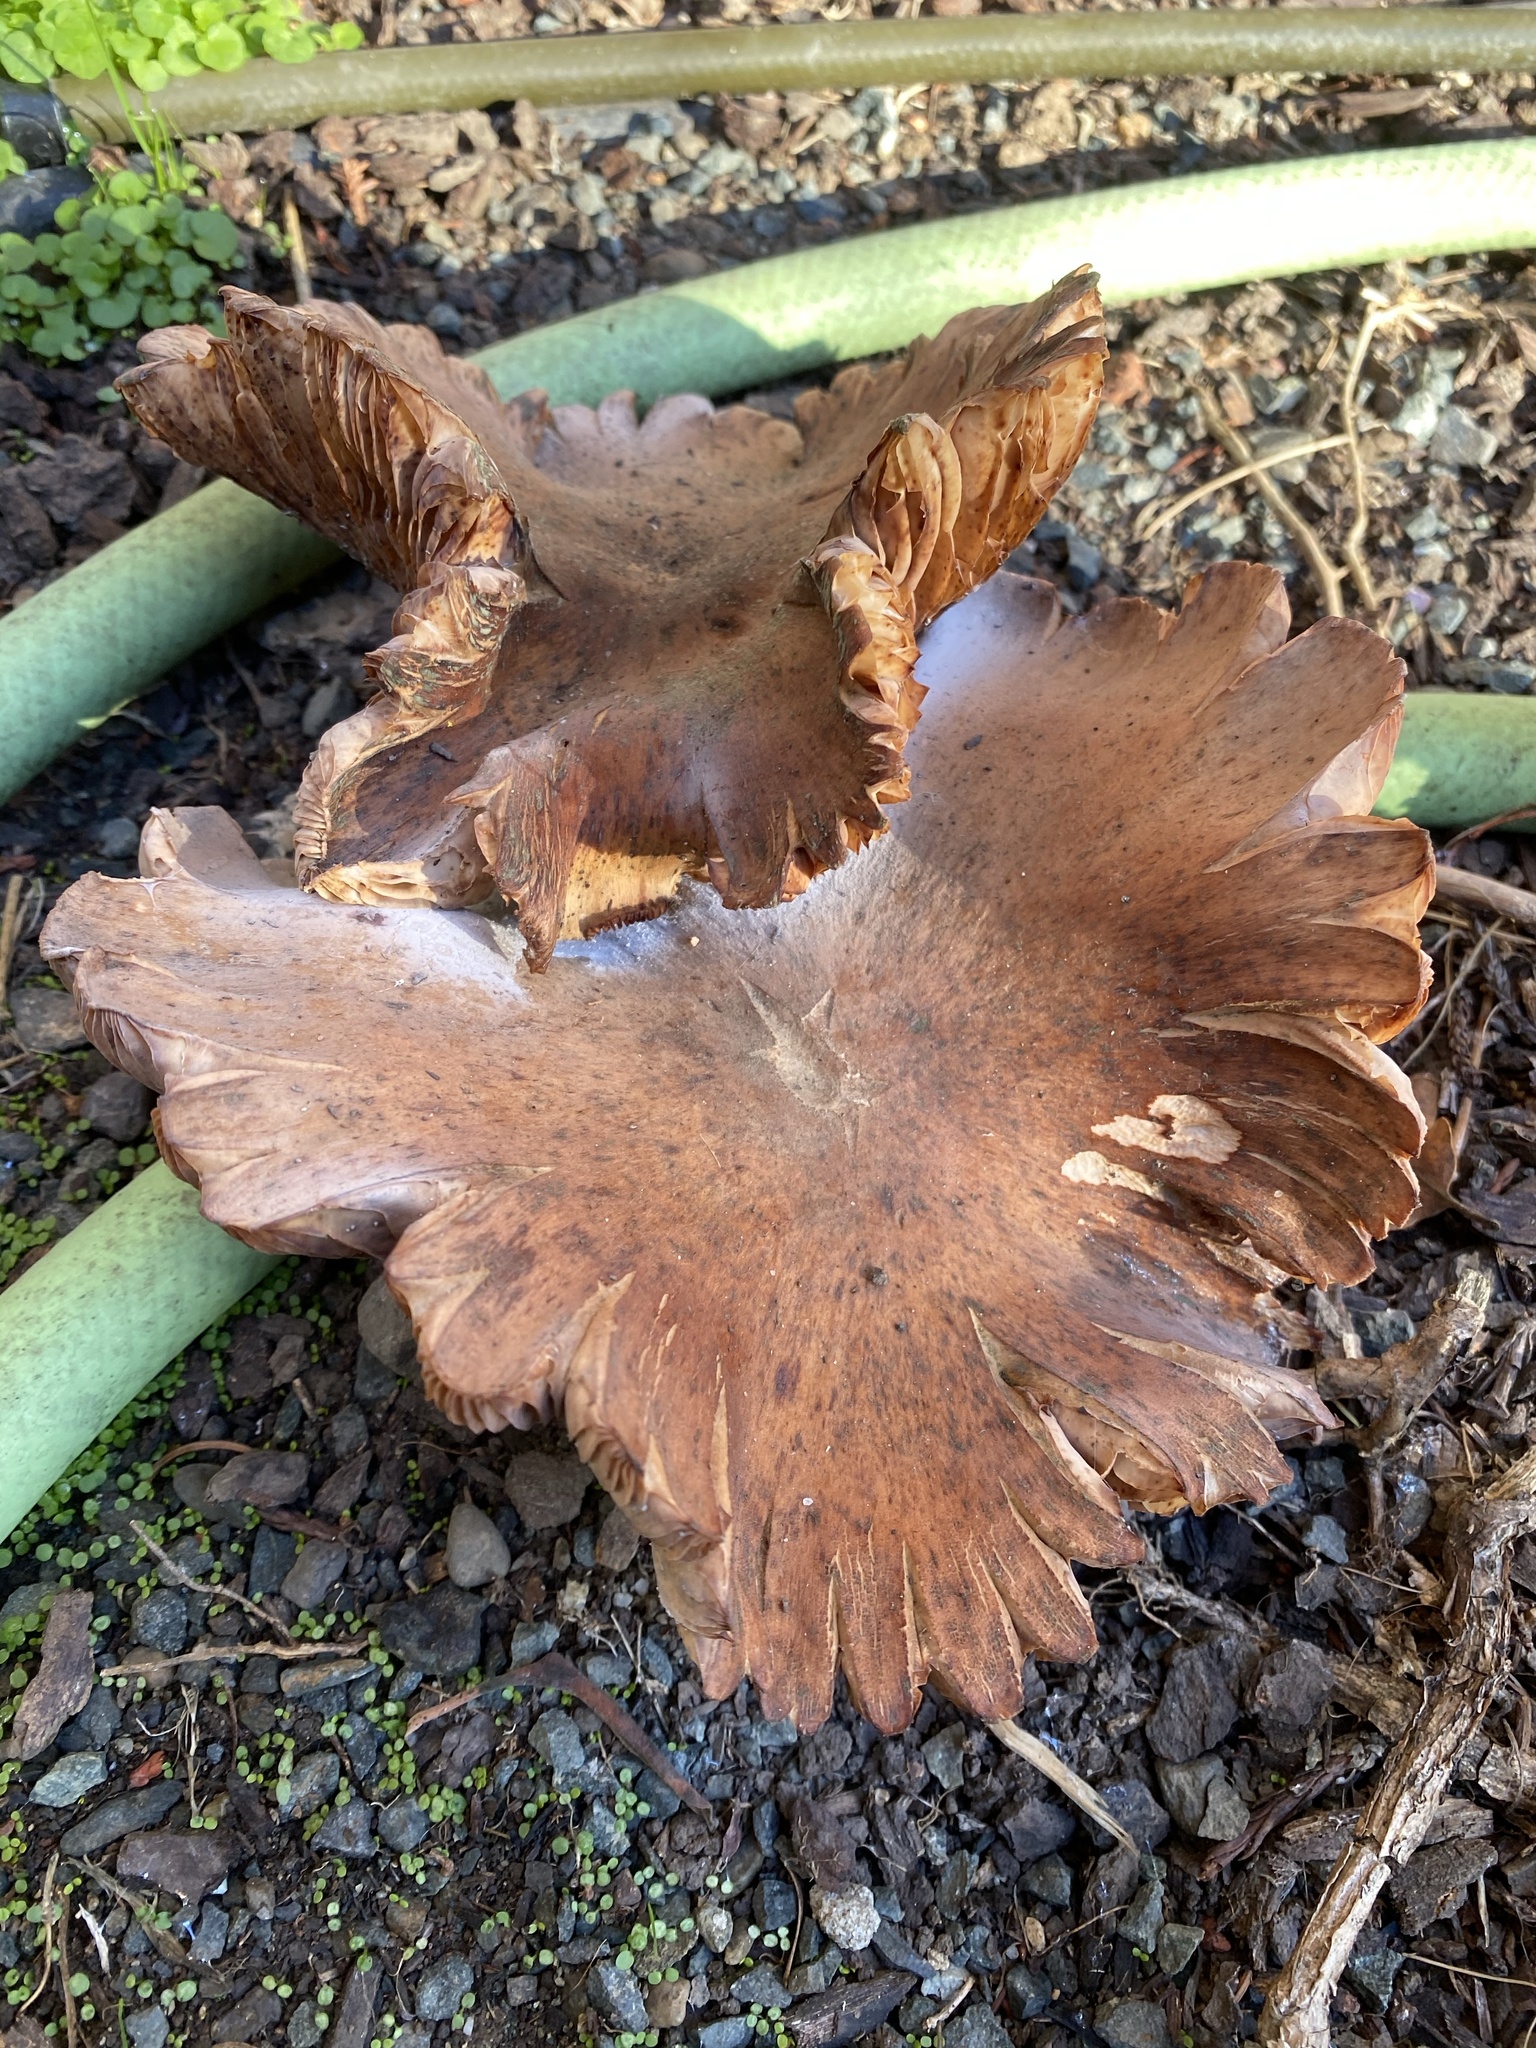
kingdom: Fungi
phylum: Basidiomycota
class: Agaricomycetes
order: Agaricales
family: Physalacriaceae
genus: Armillaria
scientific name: Armillaria mellea
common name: Honey fungus
